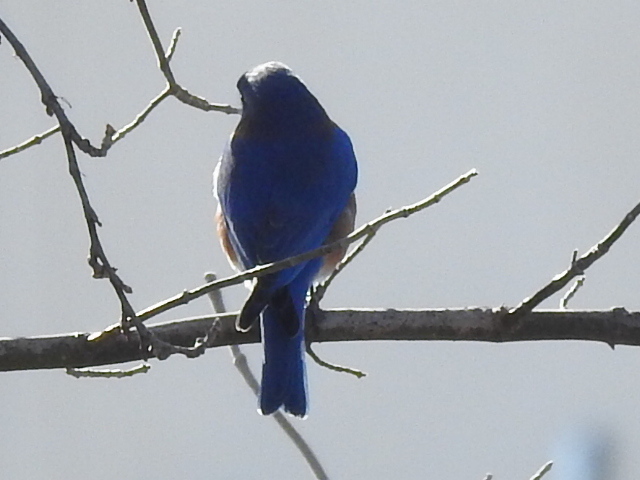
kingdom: Animalia
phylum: Chordata
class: Aves
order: Passeriformes
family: Turdidae
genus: Sialia
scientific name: Sialia sialis
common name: Eastern bluebird
